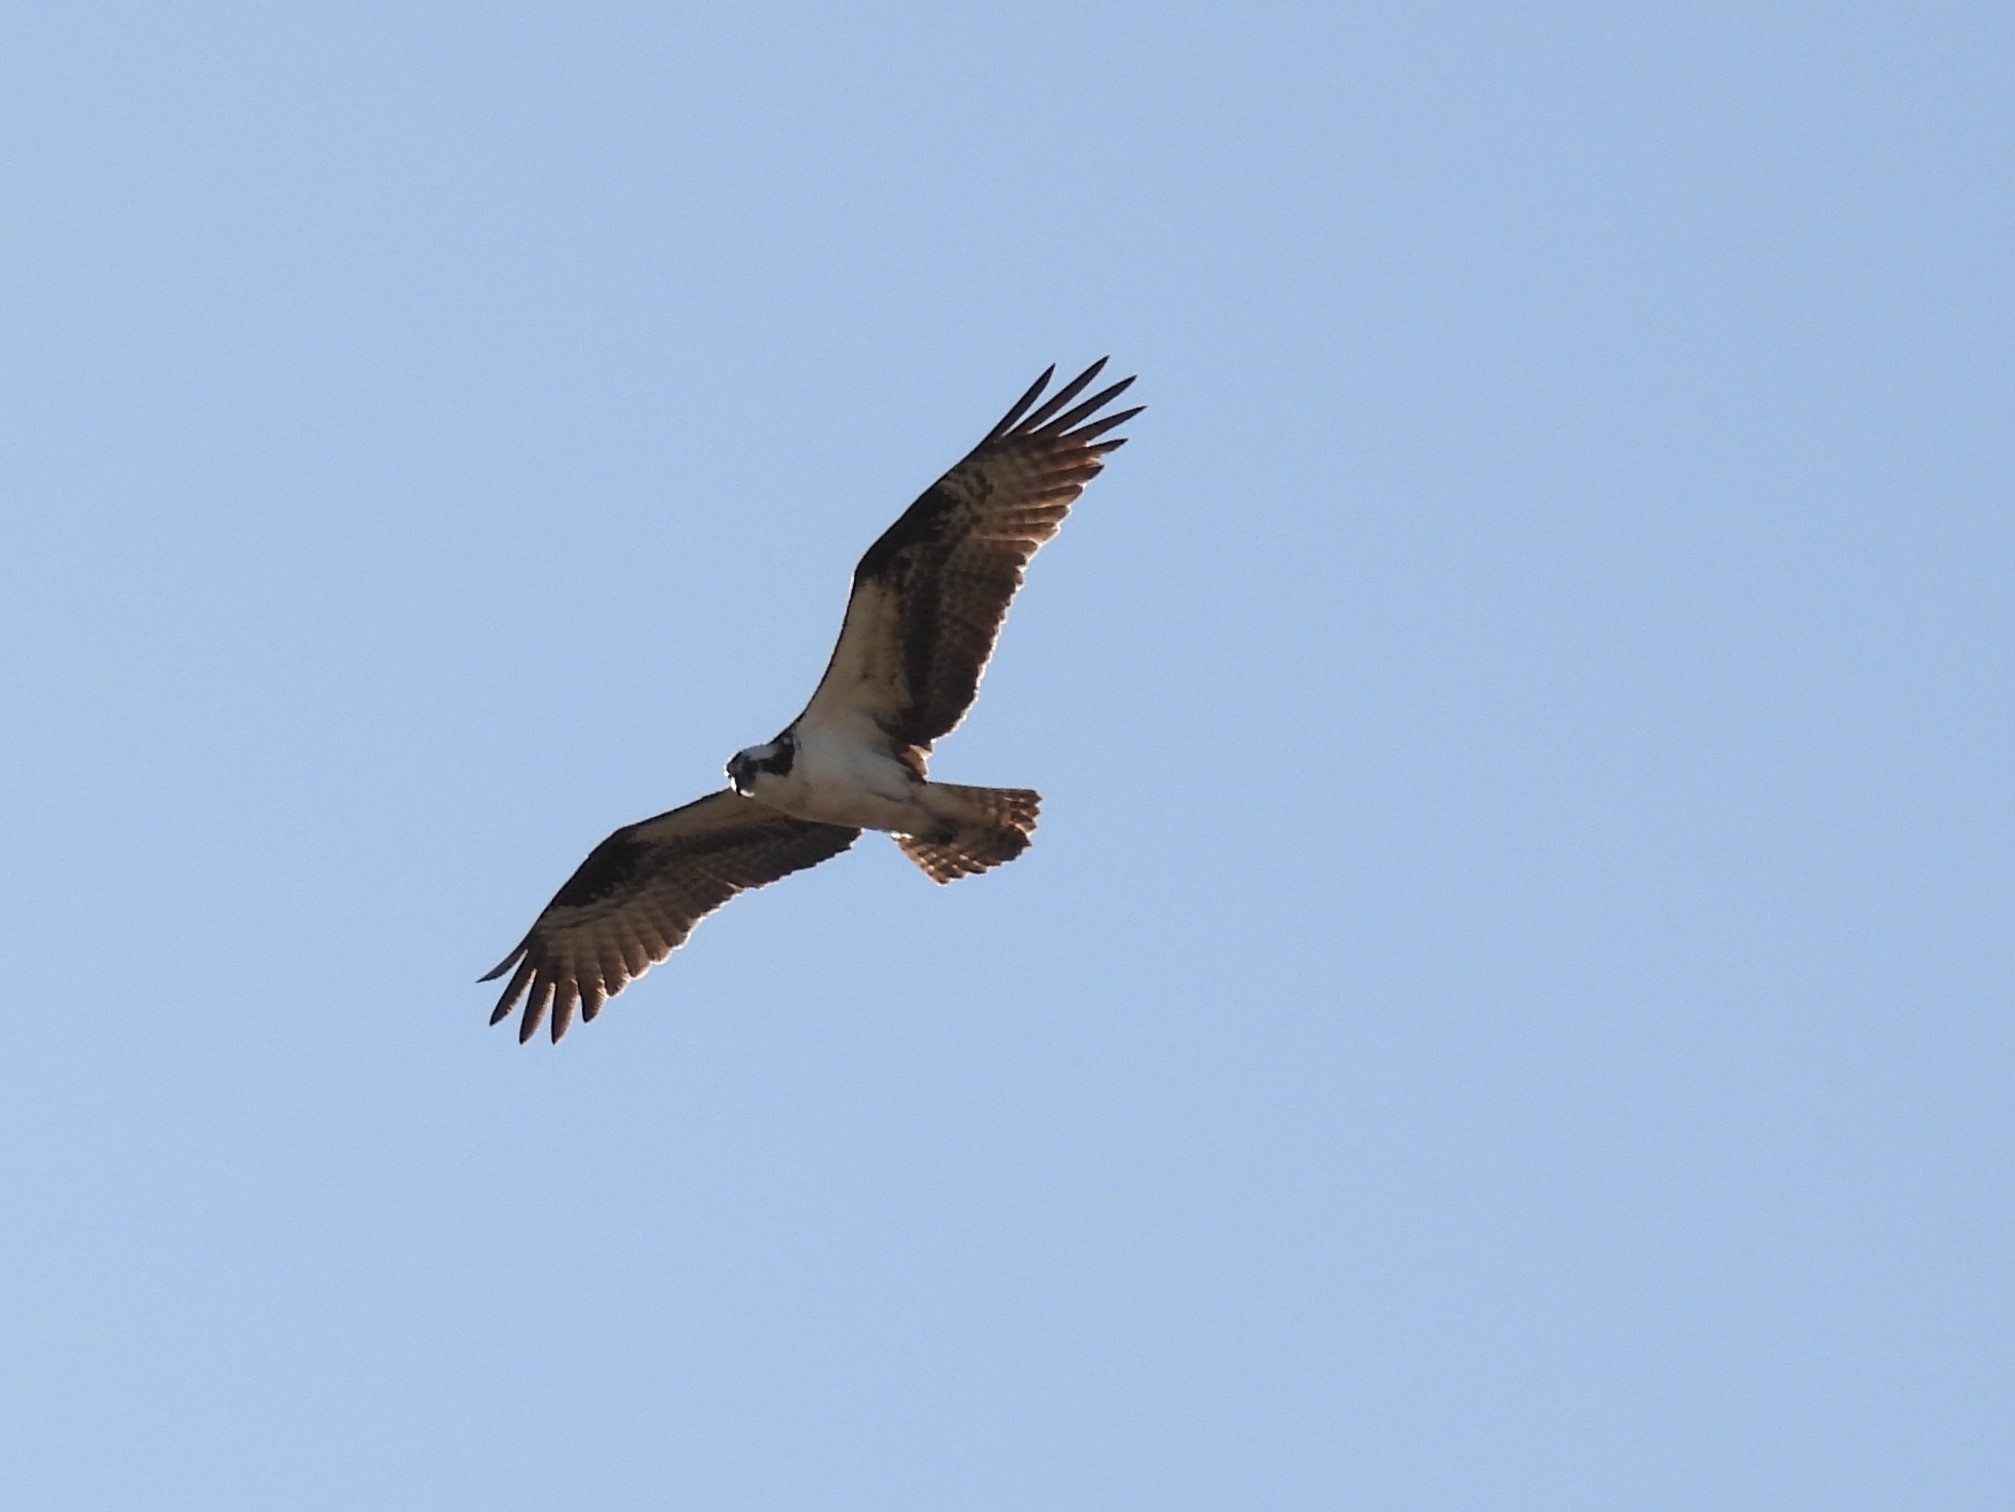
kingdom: Animalia
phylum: Chordata
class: Aves
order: Accipitriformes
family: Pandionidae
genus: Pandion
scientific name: Pandion haliaetus
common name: Osprey
